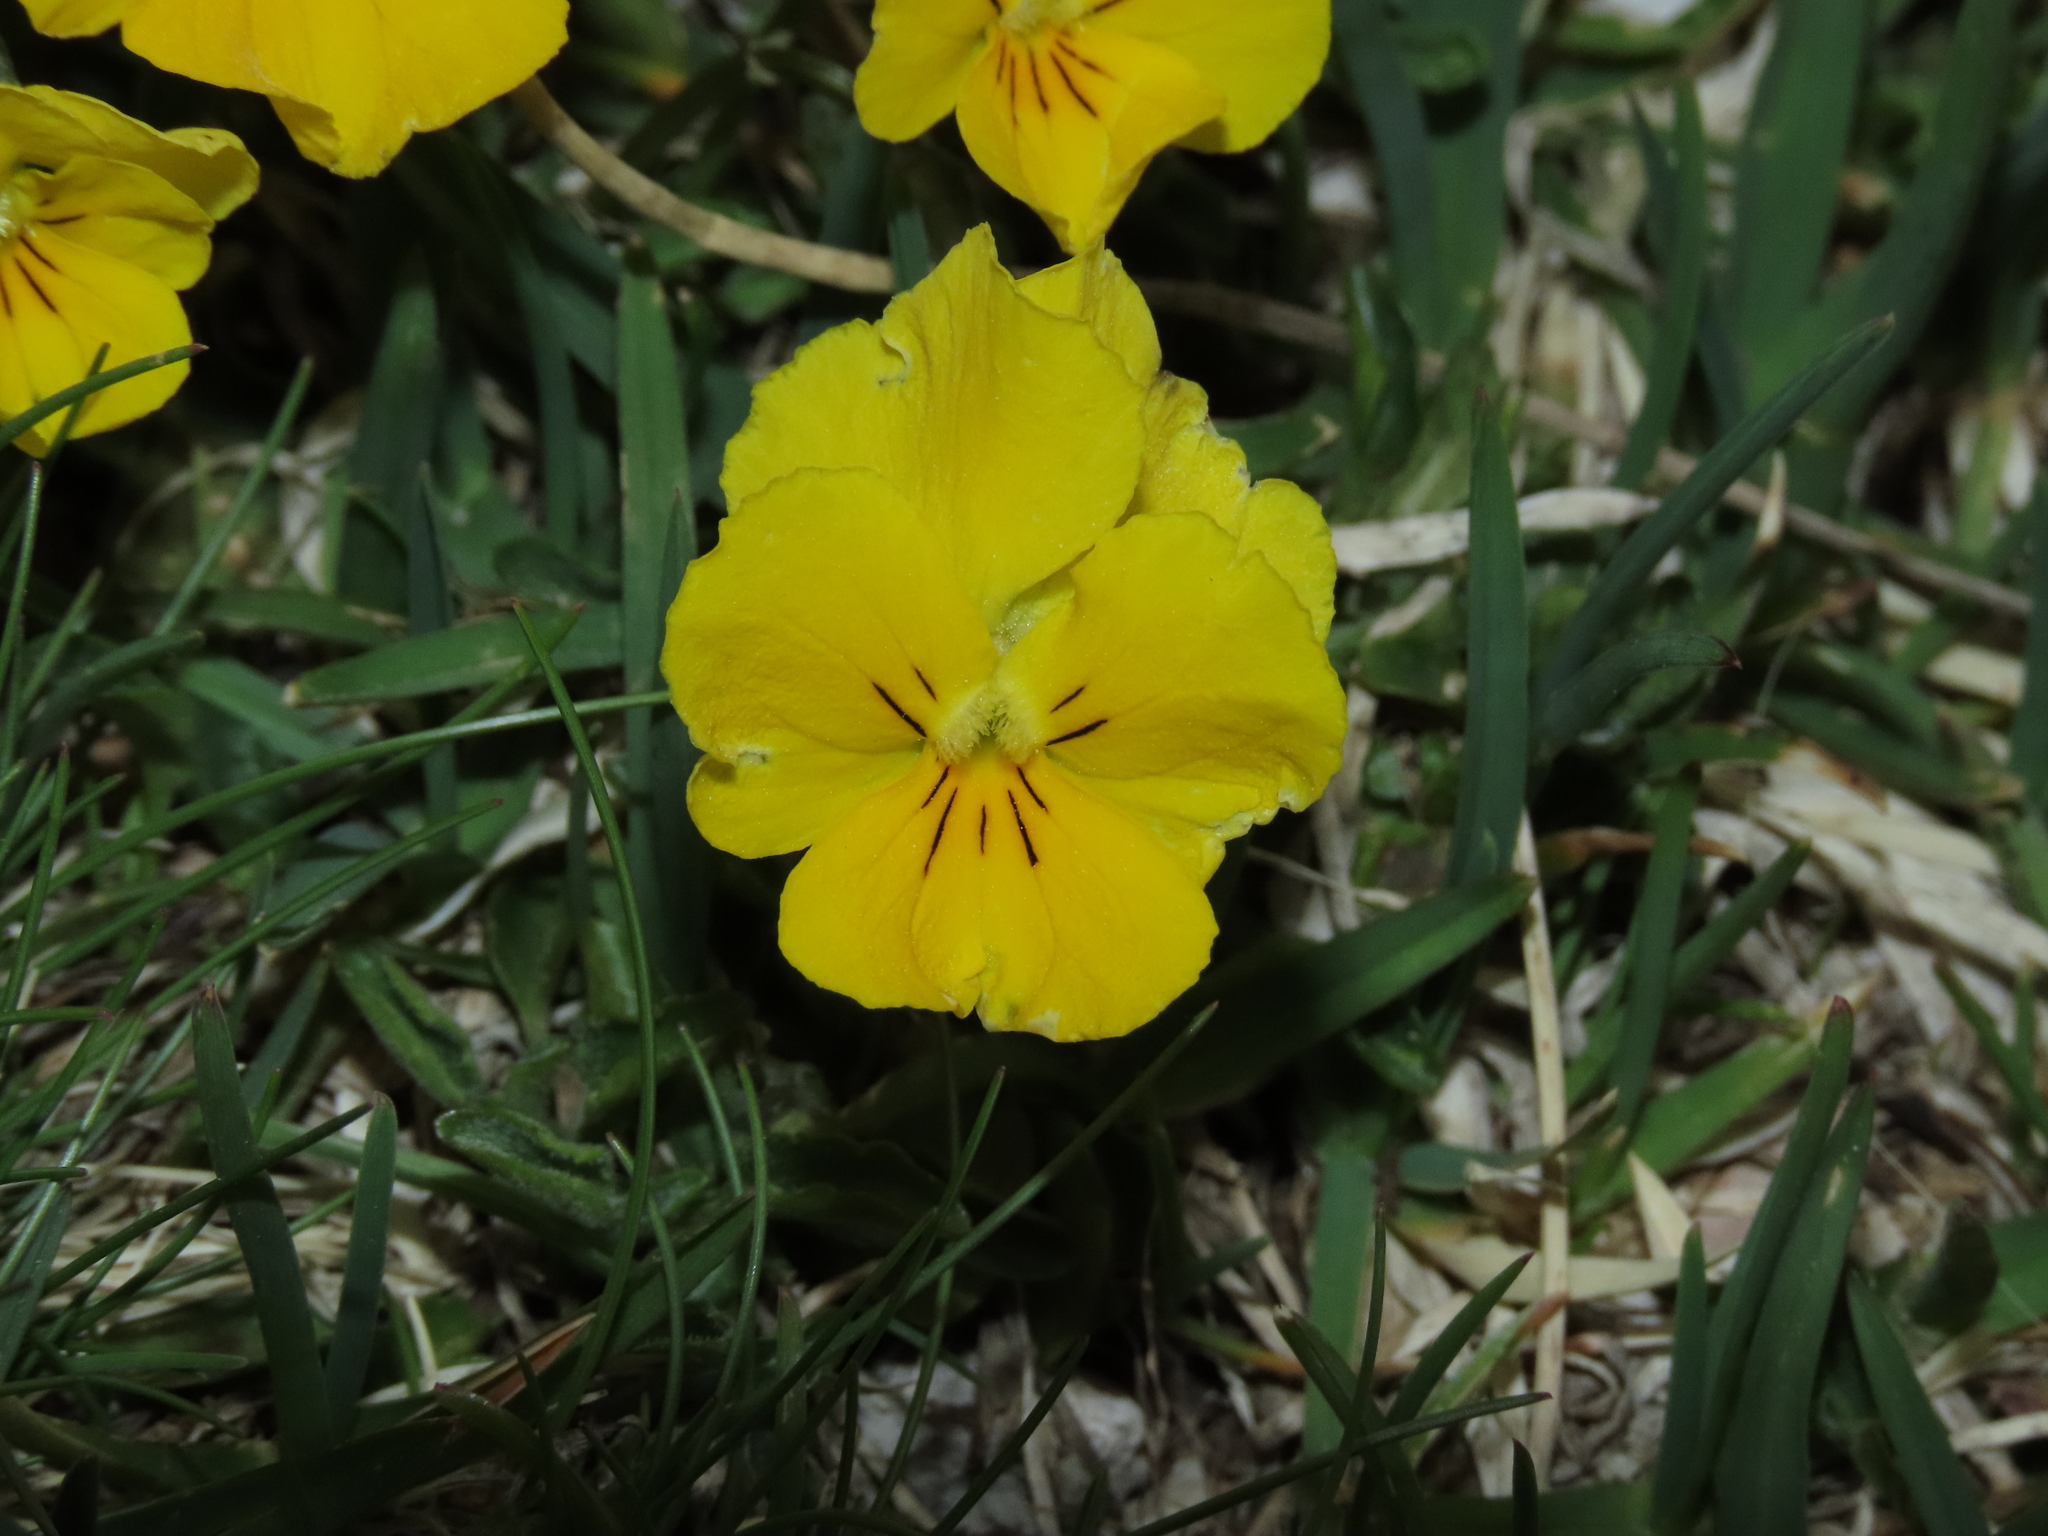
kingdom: Plantae
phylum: Tracheophyta
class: Magnoliopsida
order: Malpighiales
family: Violaceae
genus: Viola
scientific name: Viola eugeniae
